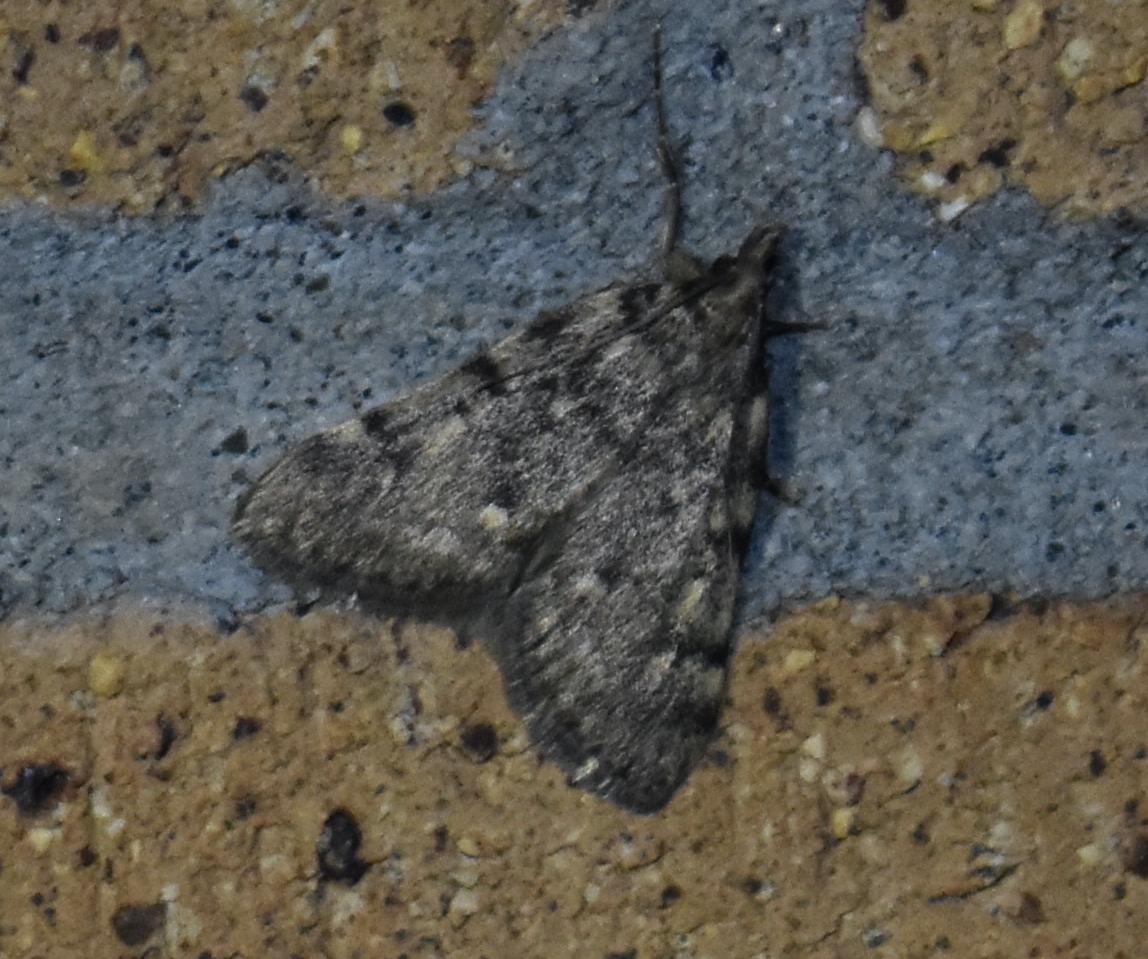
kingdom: Animalia
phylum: Arthropoda
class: Insecta
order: Lepidoptera
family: Pyralidae
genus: Aglossa
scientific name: Aglossa pinguinalis
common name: Large tabby
